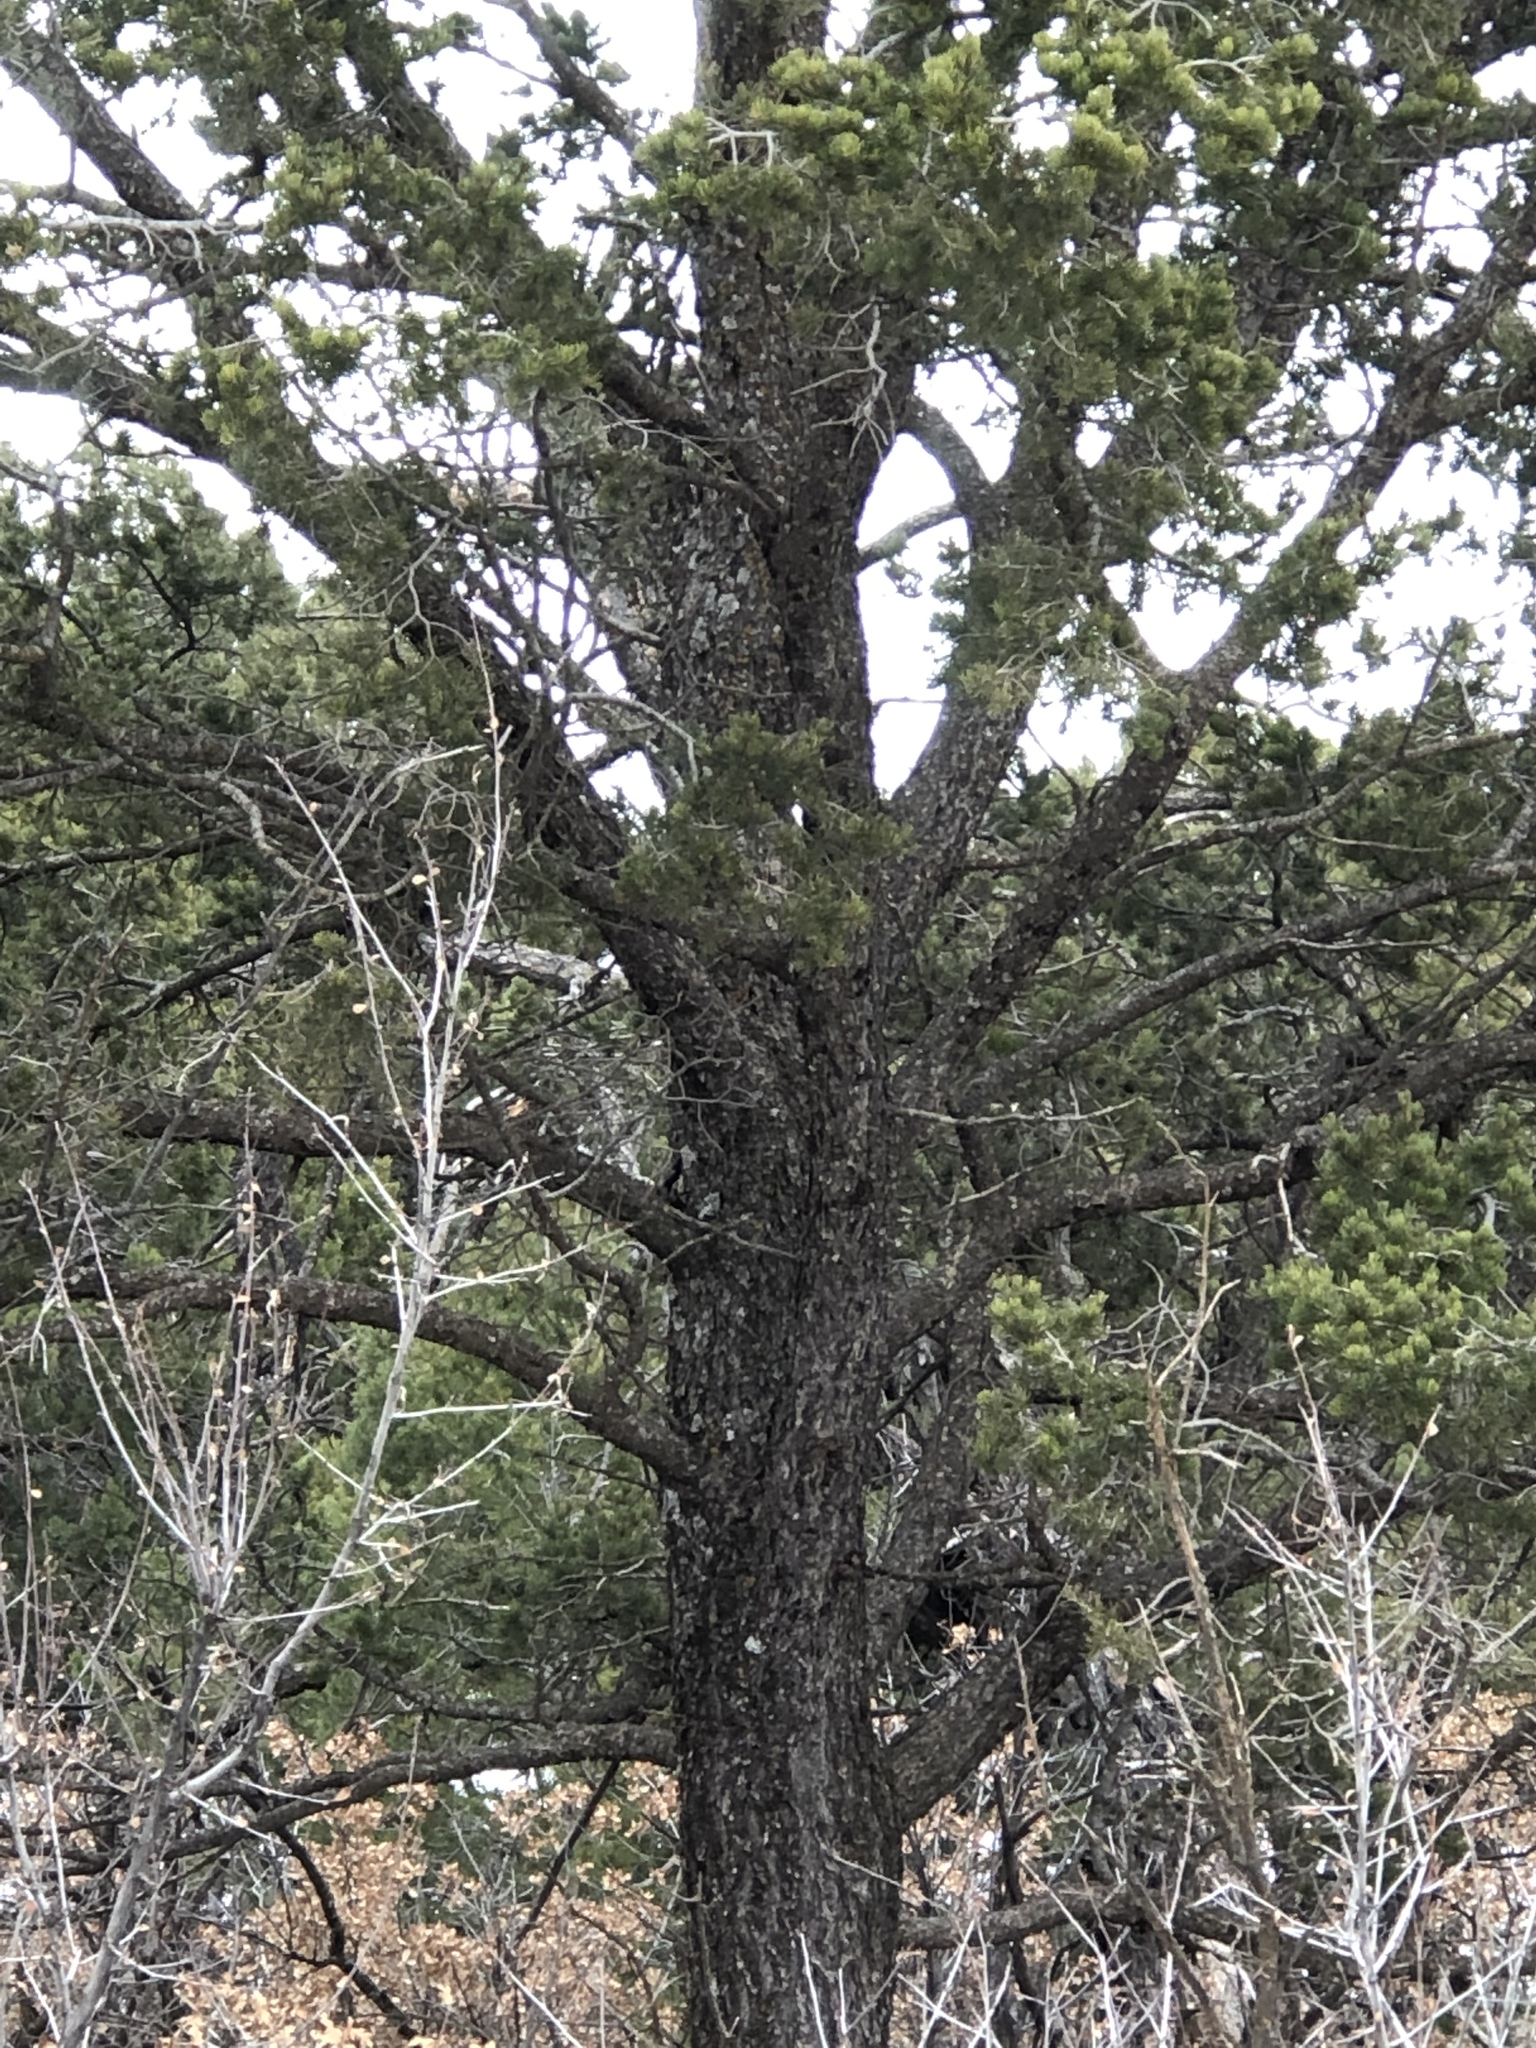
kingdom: Plantae
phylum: Tracheophyta
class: Pinopsida
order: Pinales
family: Pinaceae
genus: Pinus
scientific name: Pinus edulis
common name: Colorado pinyon
